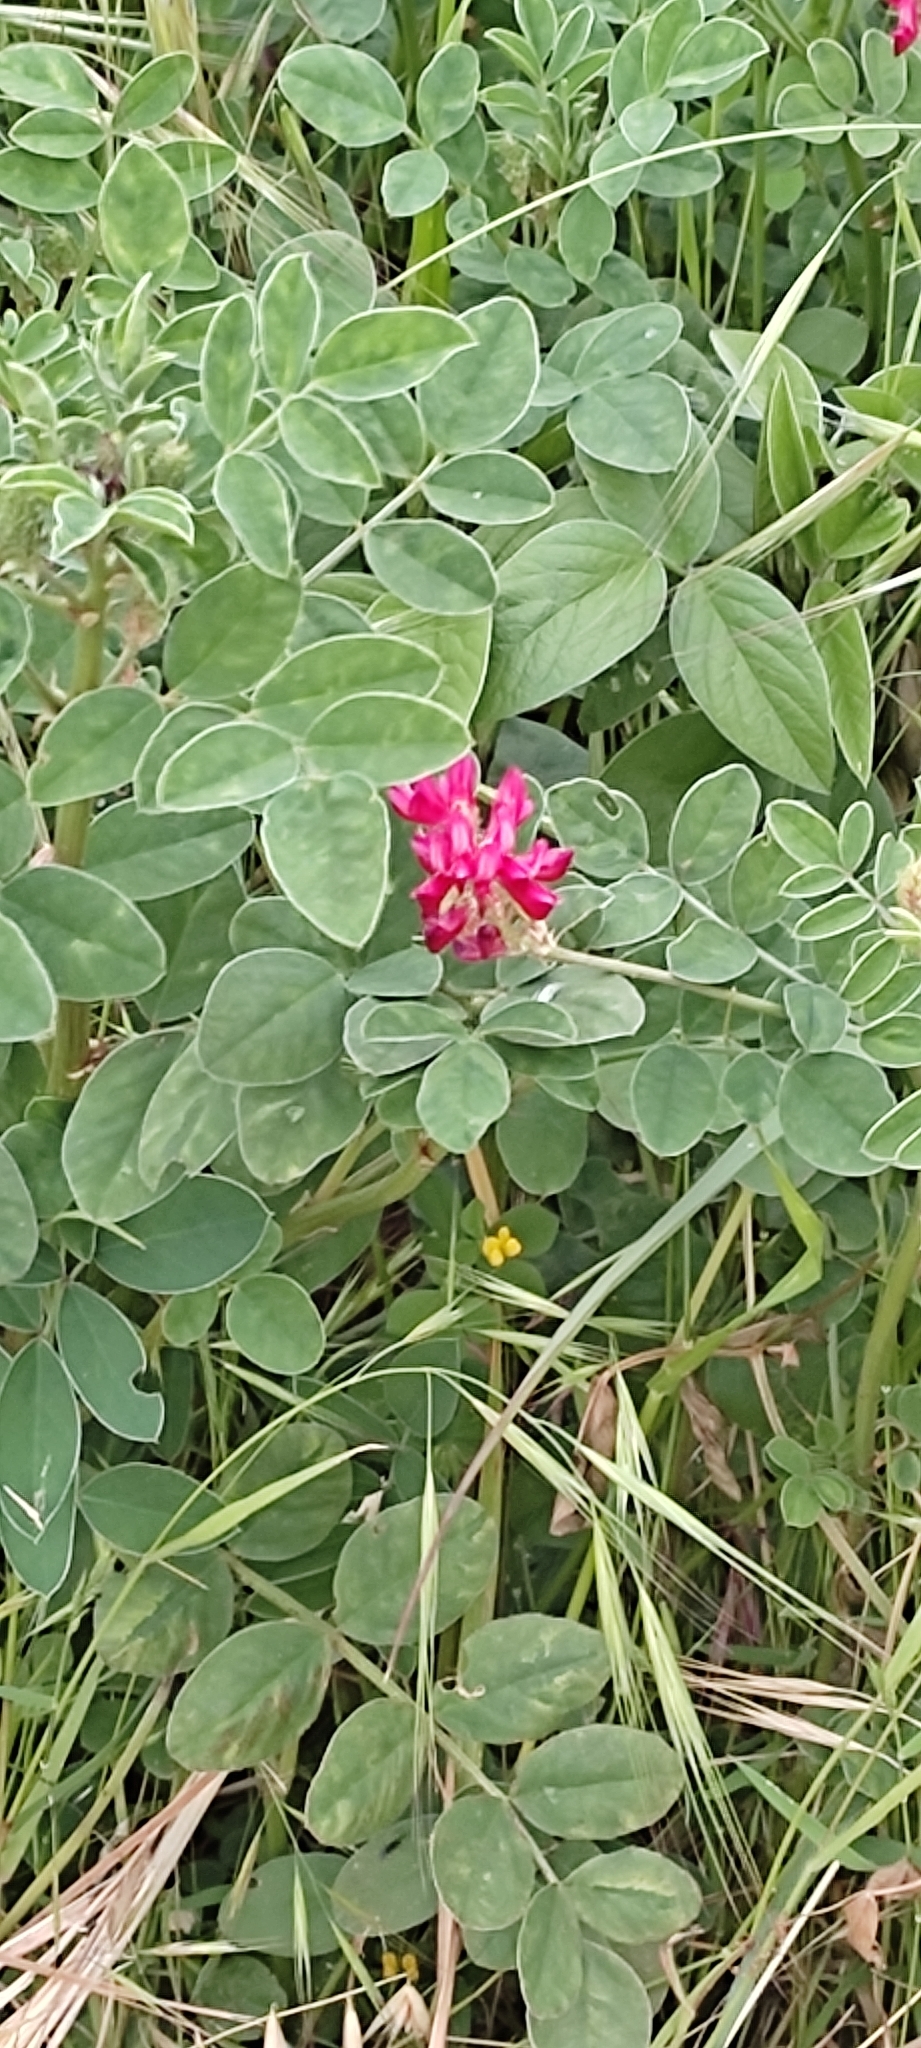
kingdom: Plantae
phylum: Tracheophyta
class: Magnoliopsida
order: Fabales
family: Fabaceae
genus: Sulla
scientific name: Sulla coronaria
